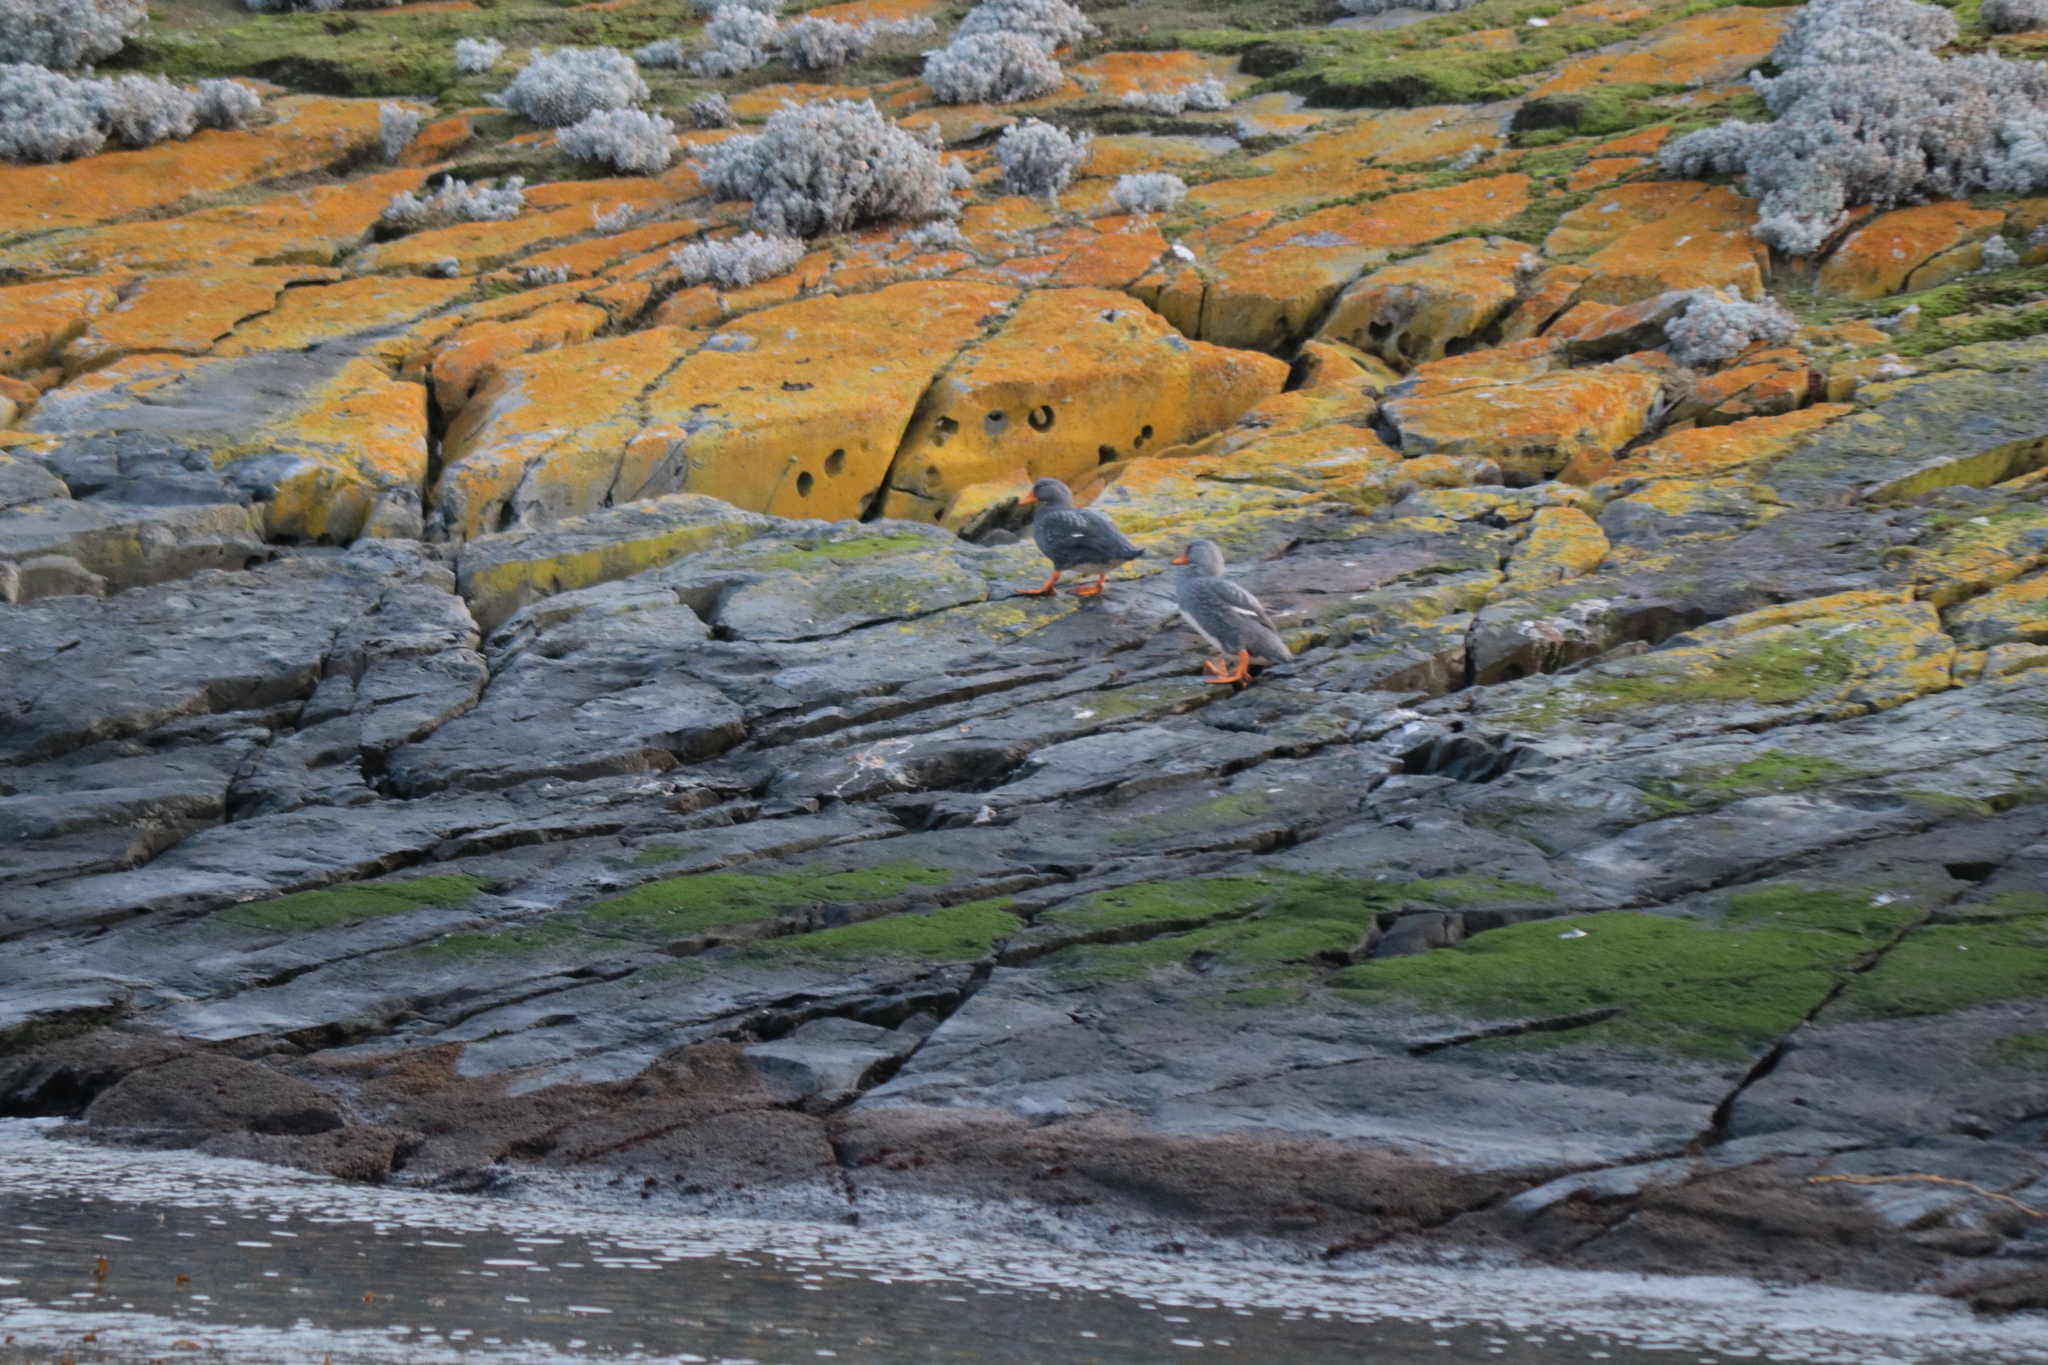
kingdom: Animalia
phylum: Chordata
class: Aves
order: Anseriformes
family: Anatidae
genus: Tachyeres
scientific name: Tachyeres pteneres
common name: Fuegian steamer duck
